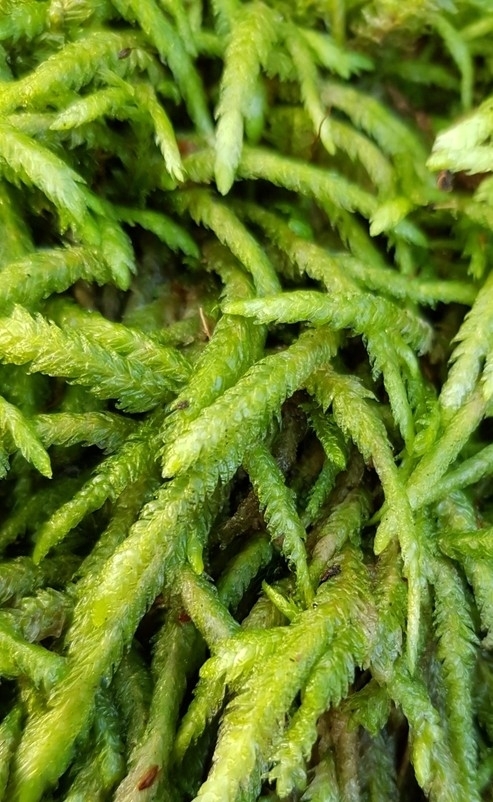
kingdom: Plantae
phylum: Bryophyta
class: Bryopsida
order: Hypnales
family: Plagiotheciaceae
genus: Plagiothecium
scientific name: Plagiothecium undulatum
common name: Waved silk-moss
